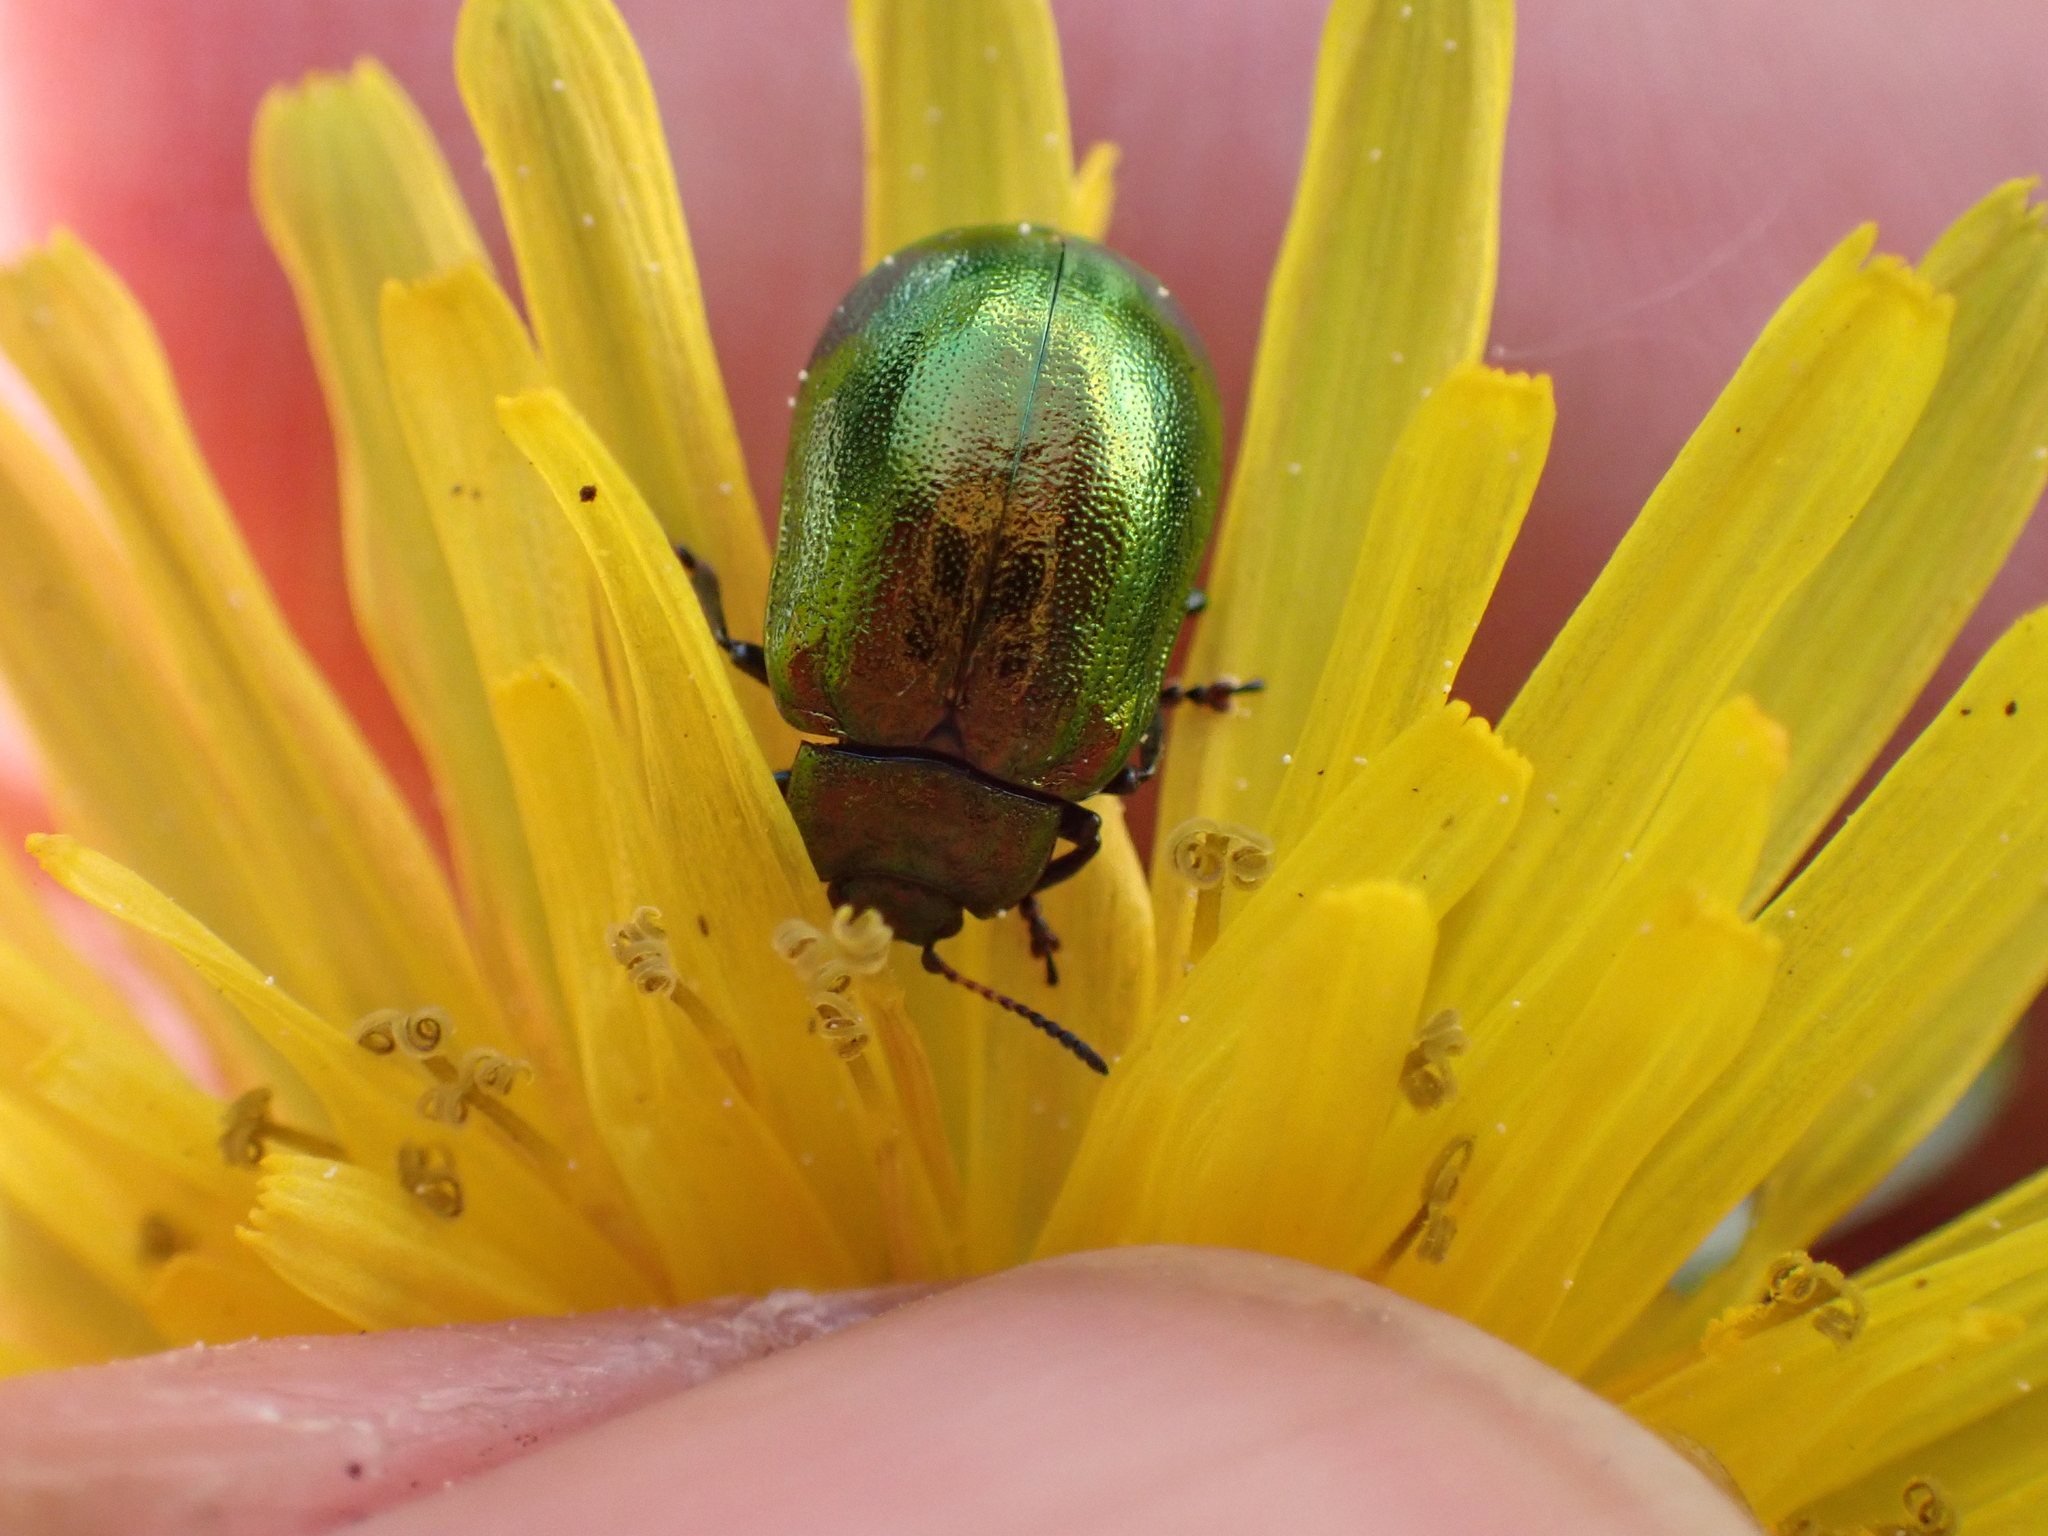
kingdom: Animalia
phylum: Arthropoda
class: Insecta
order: Coleoptera
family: Chrysomelidae
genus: Plagiosterna
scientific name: Plagiosterna aenea
